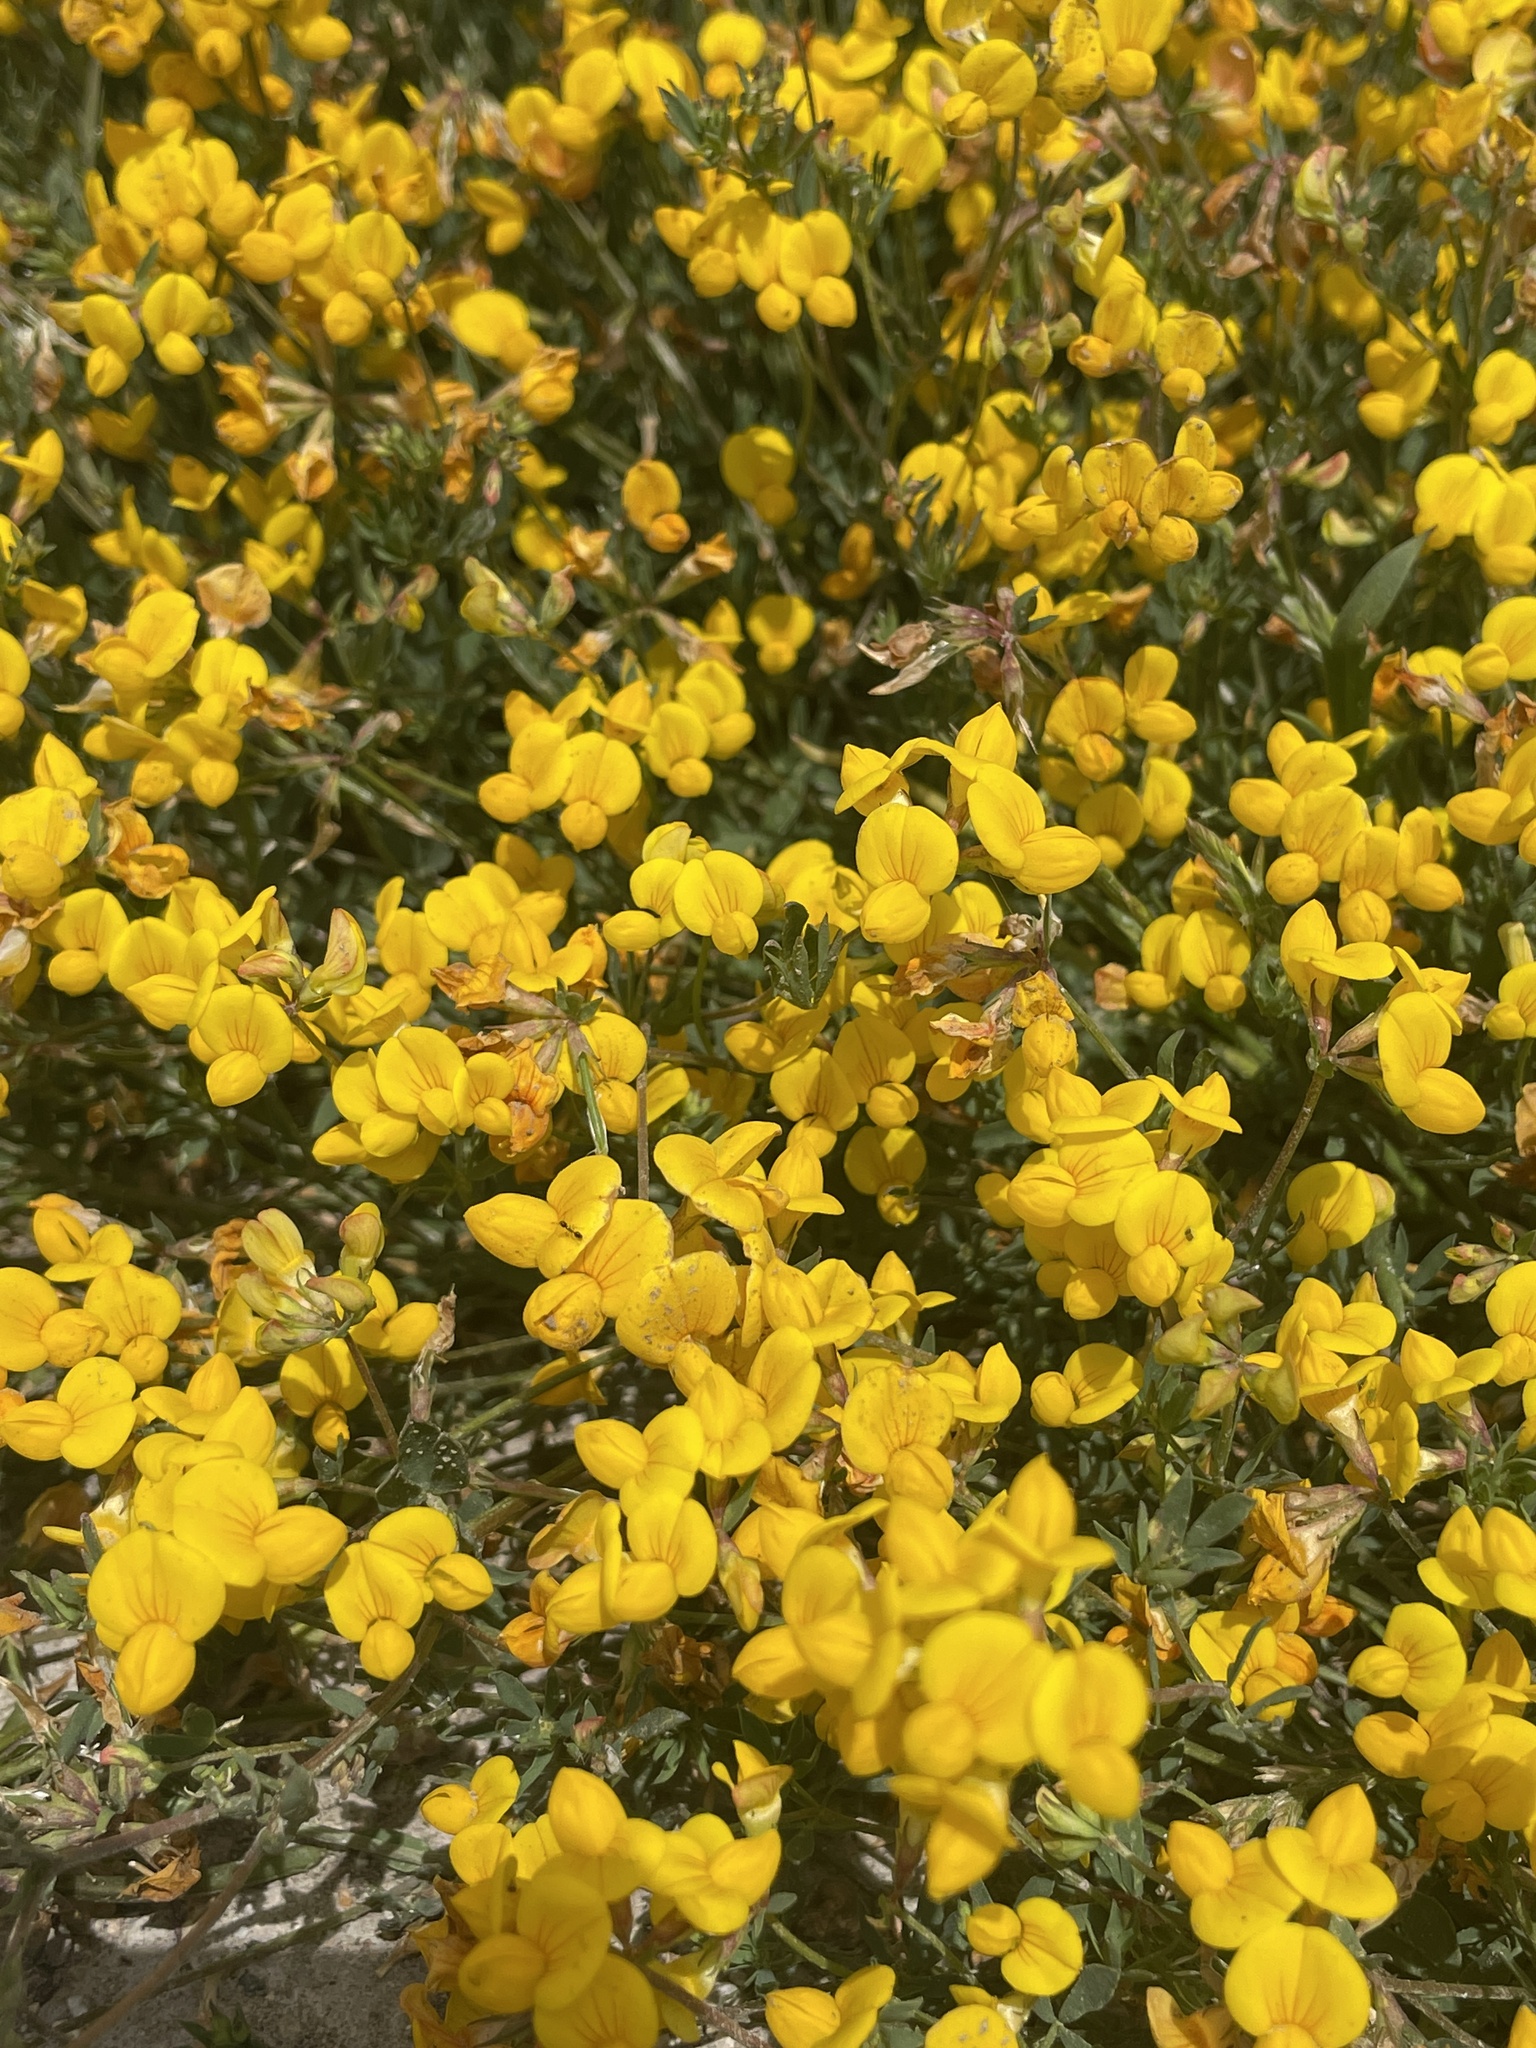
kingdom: Plantae
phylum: Tracheophyta
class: Magnoliopsida
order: Fabales
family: Fabaceae
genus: Lotus
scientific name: Lotus tenuis
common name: Narrow-leaved bird's-foot-trefoil
